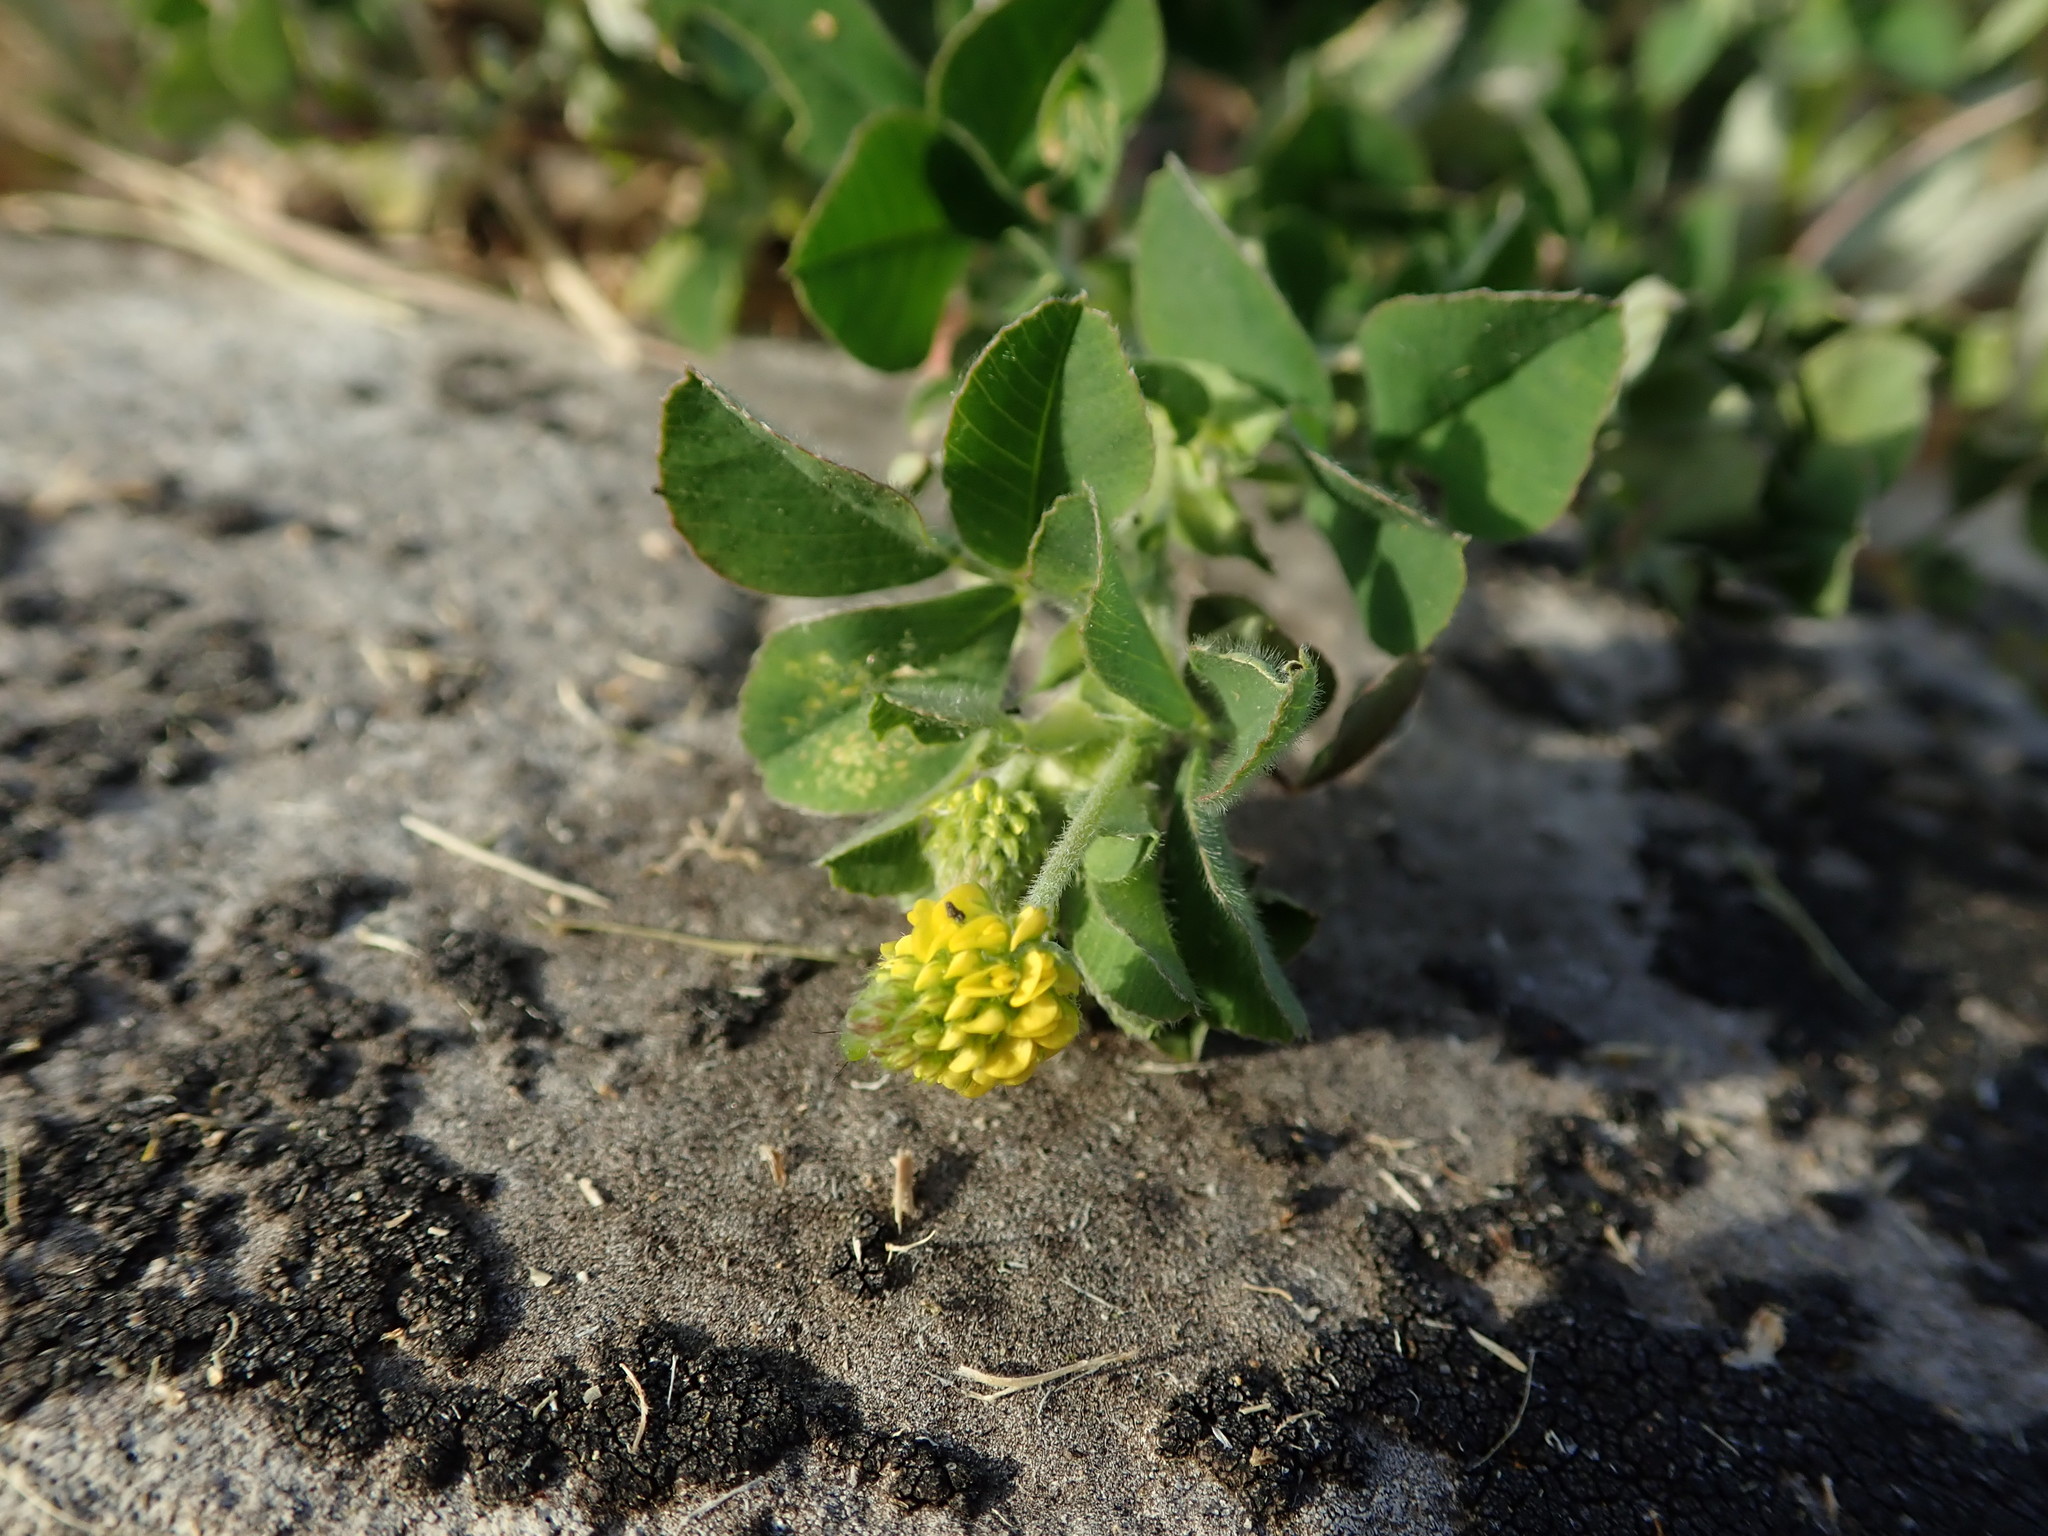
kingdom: Plantae
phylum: Tracheophyta
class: Magnoliopsida
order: Fabales
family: Fabaceae
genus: Medicago
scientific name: Medicago lupulina
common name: Black medick
